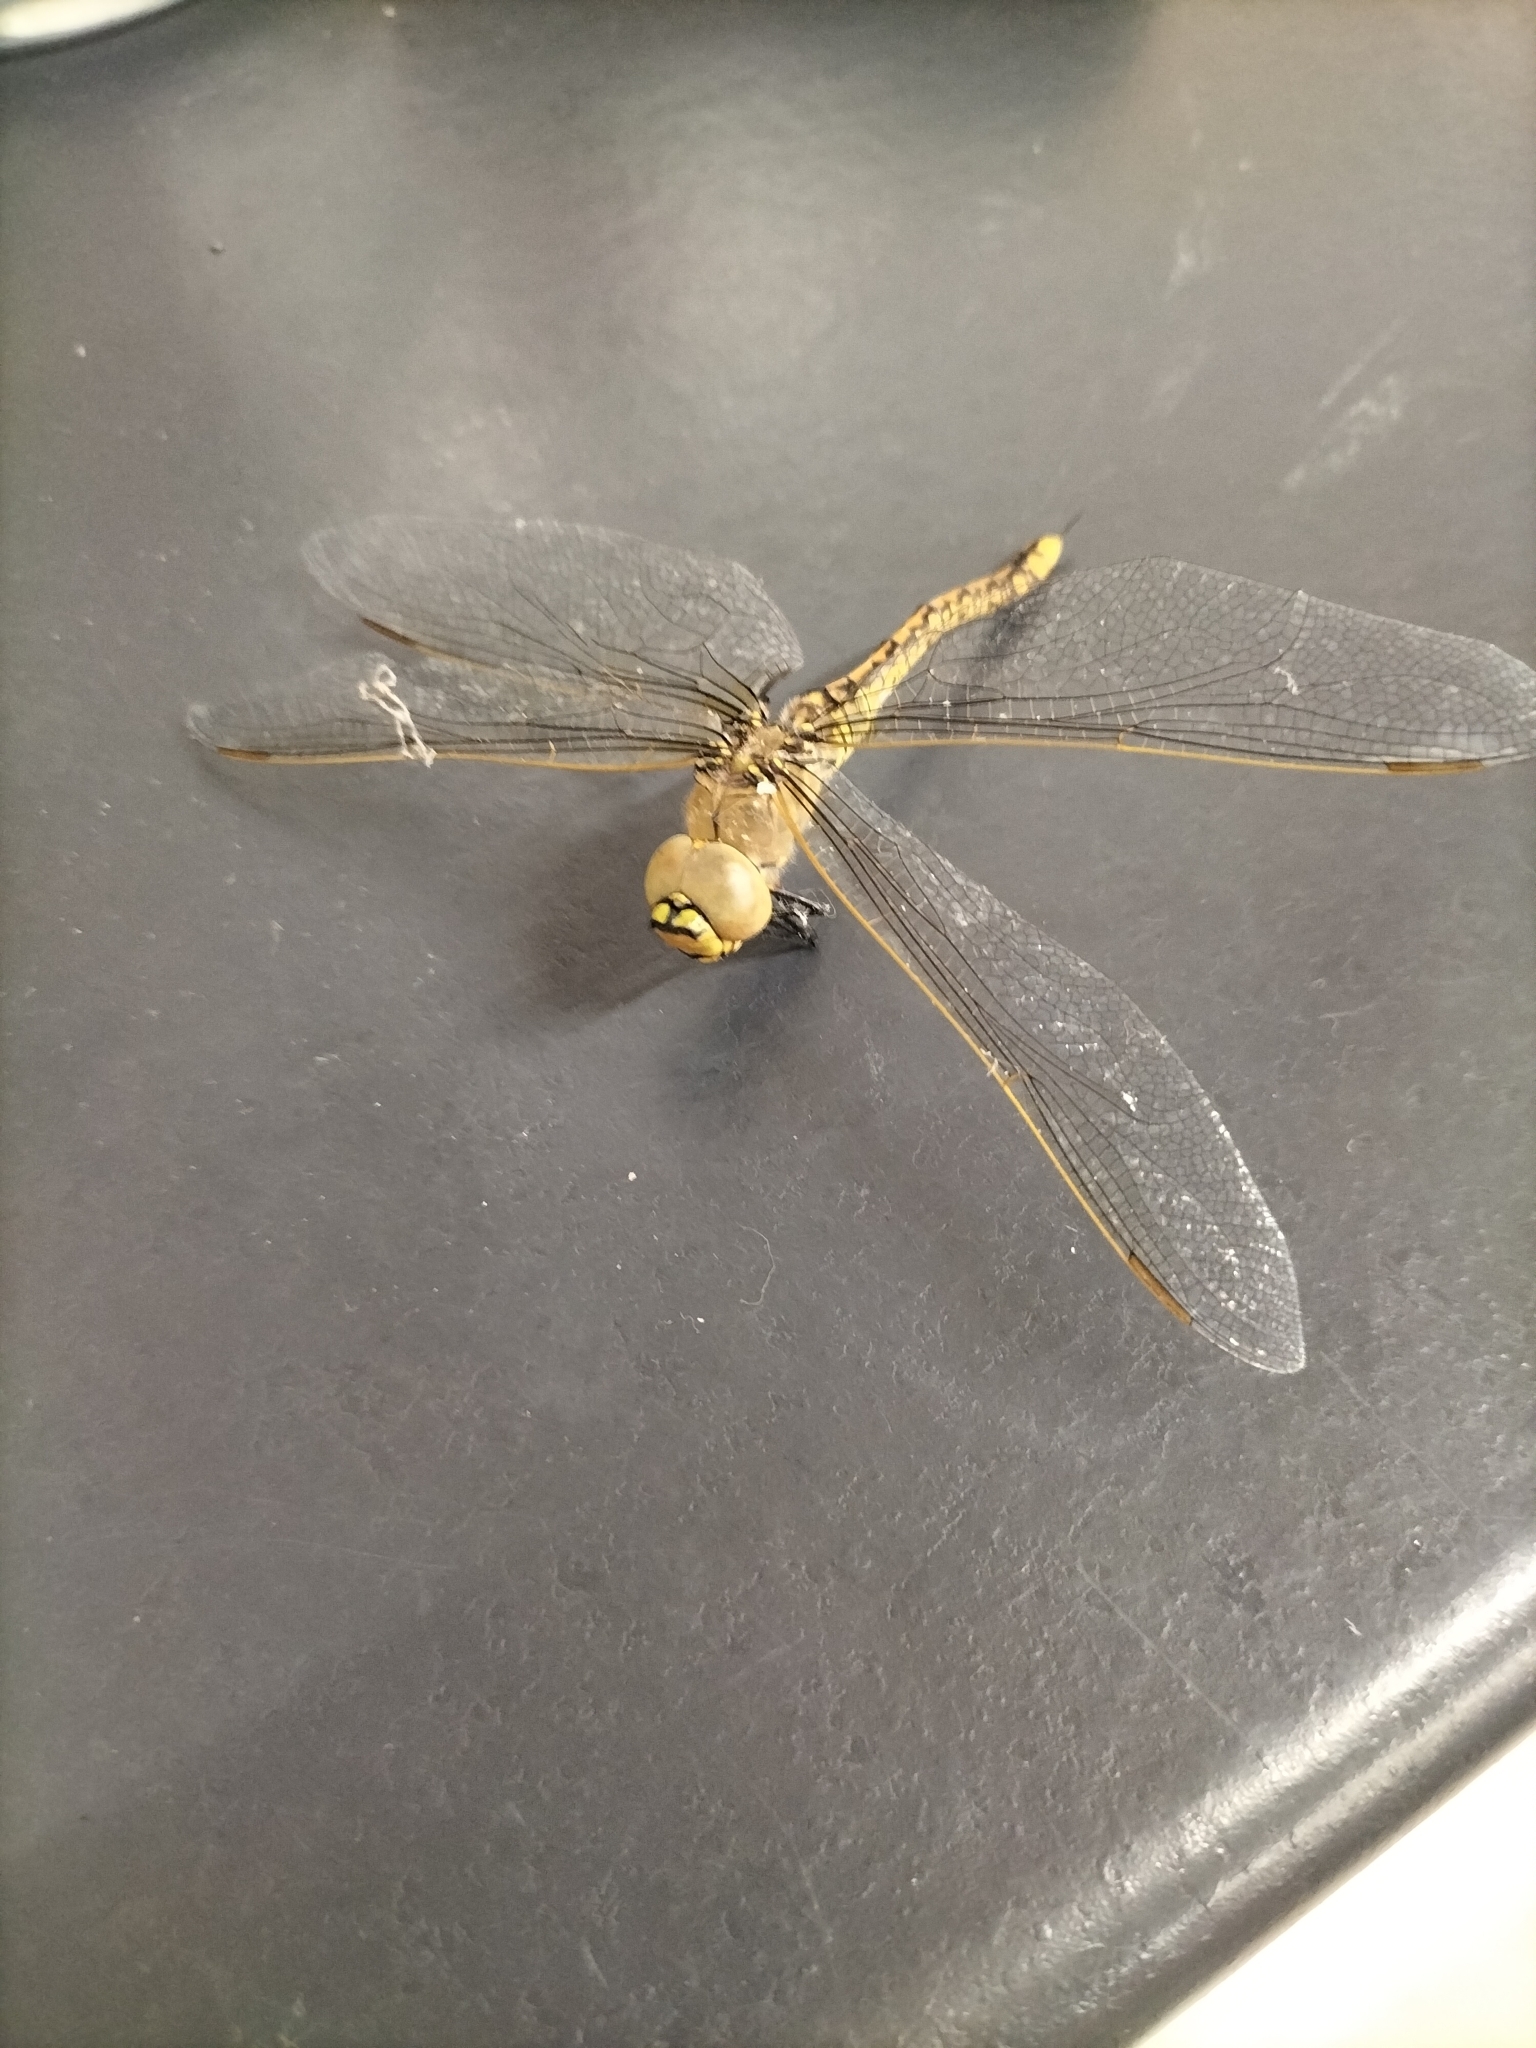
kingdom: Animalia
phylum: Arthropoda
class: Insecta
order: Odonata
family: Aeshnidae
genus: Anax
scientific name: Anax papuensis
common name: Australian emperor
